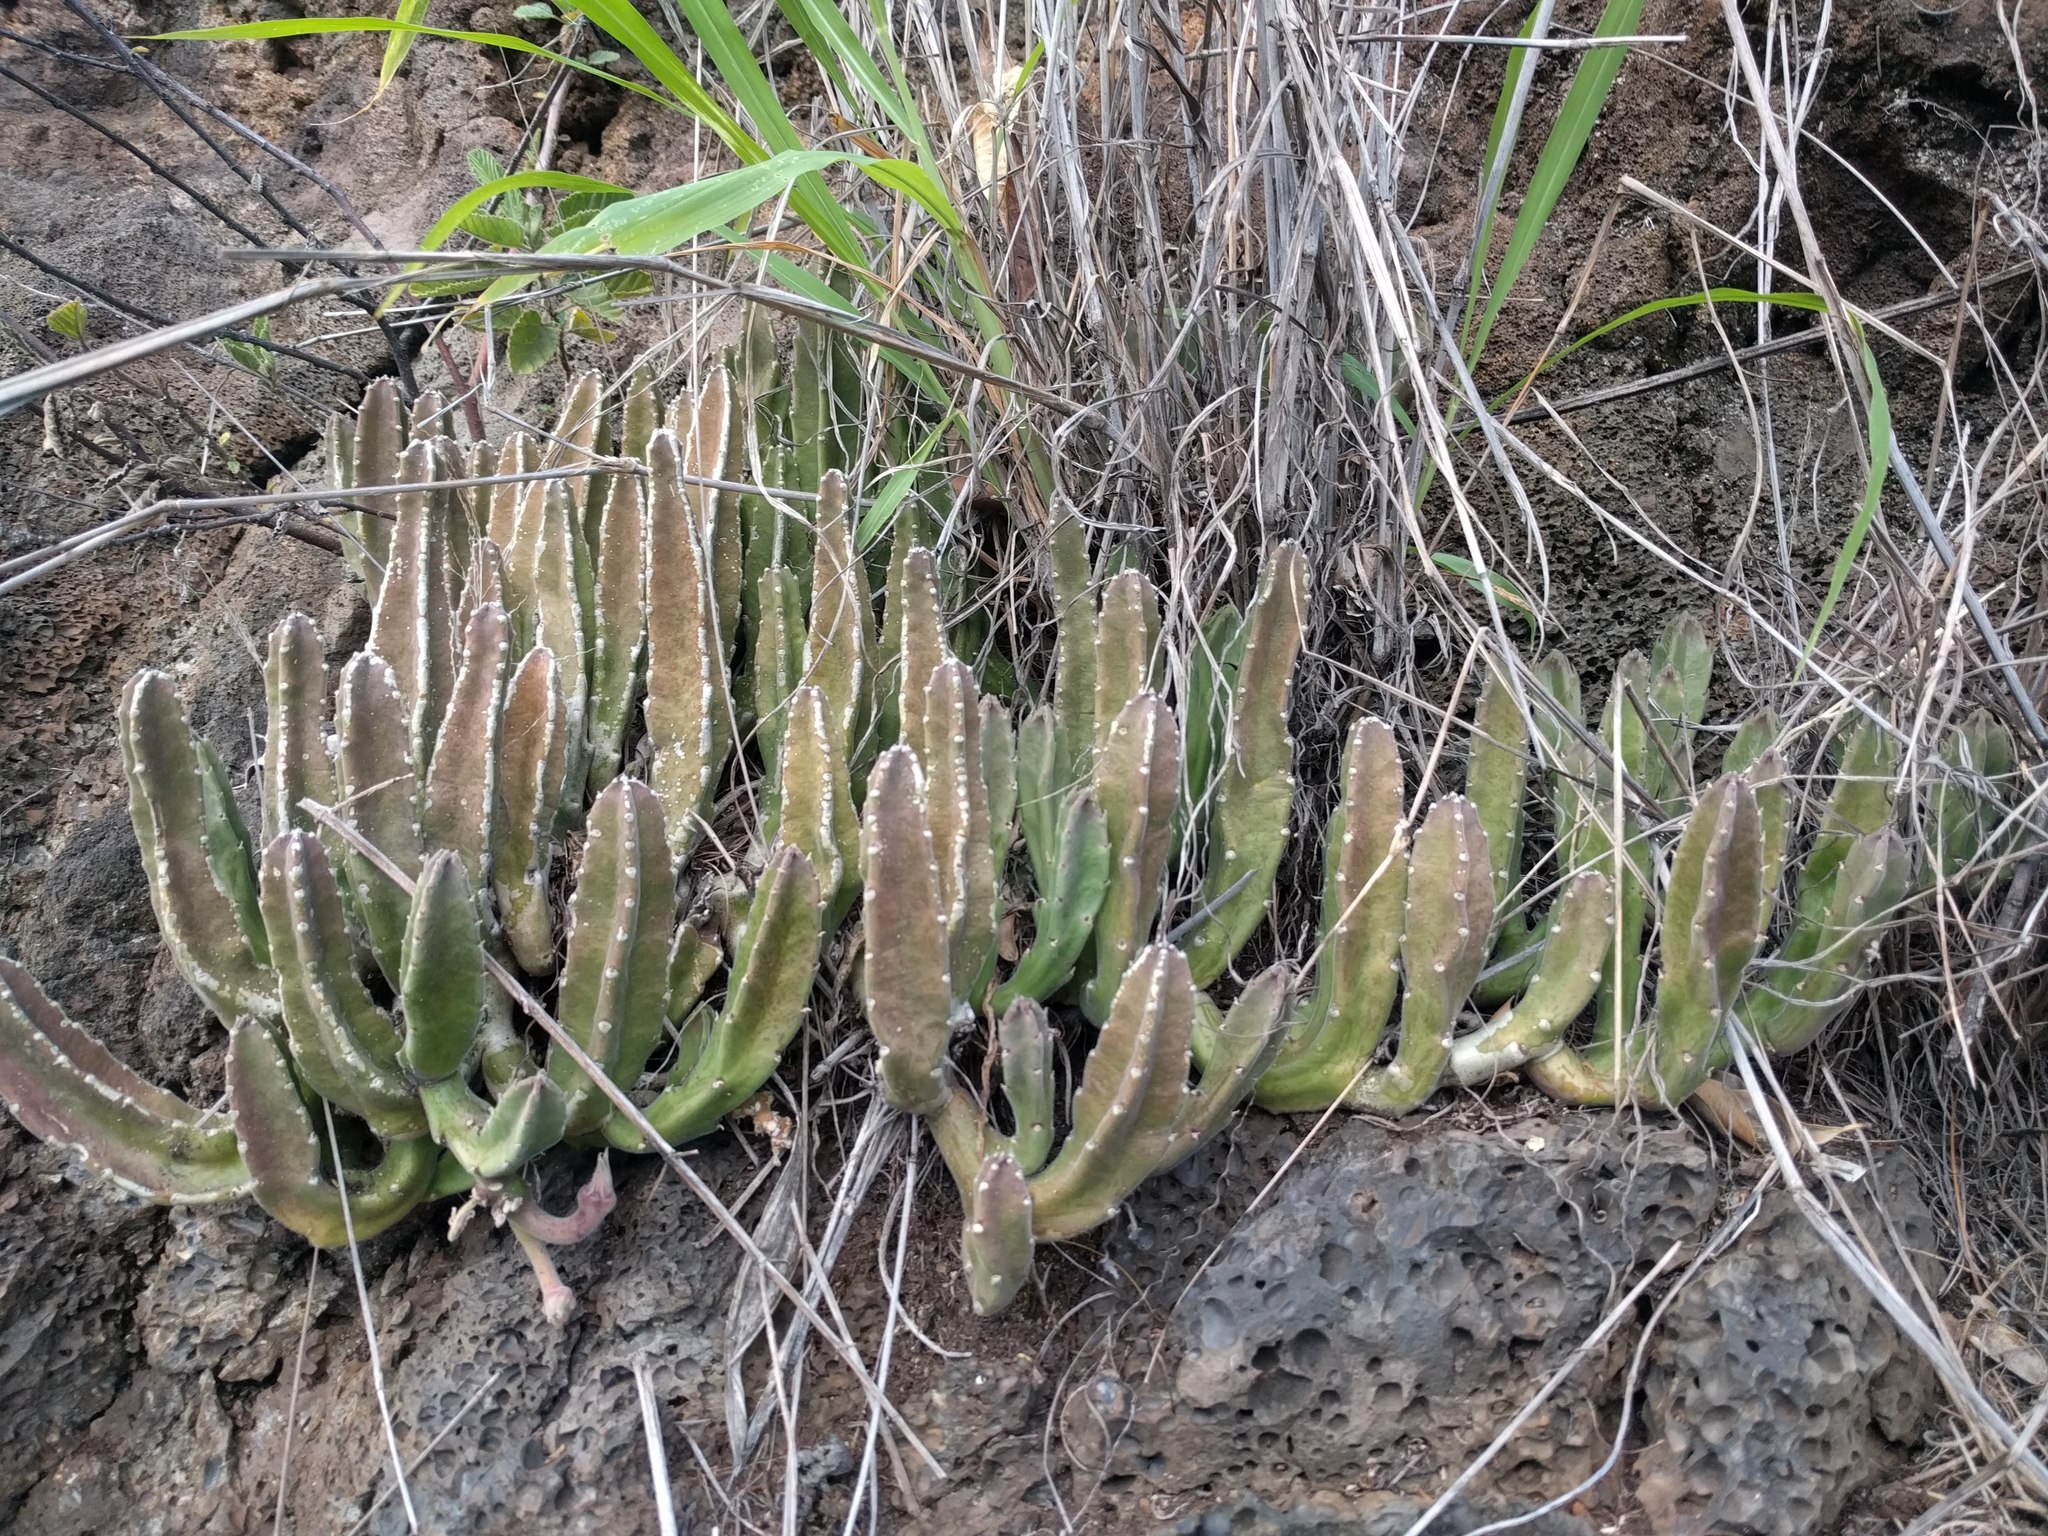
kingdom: Plantae
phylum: Tracheophyta
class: Magnoliopsida
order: Gentianales
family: Apocynaceae
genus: Ceropegia
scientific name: Ceropegia gigantea
